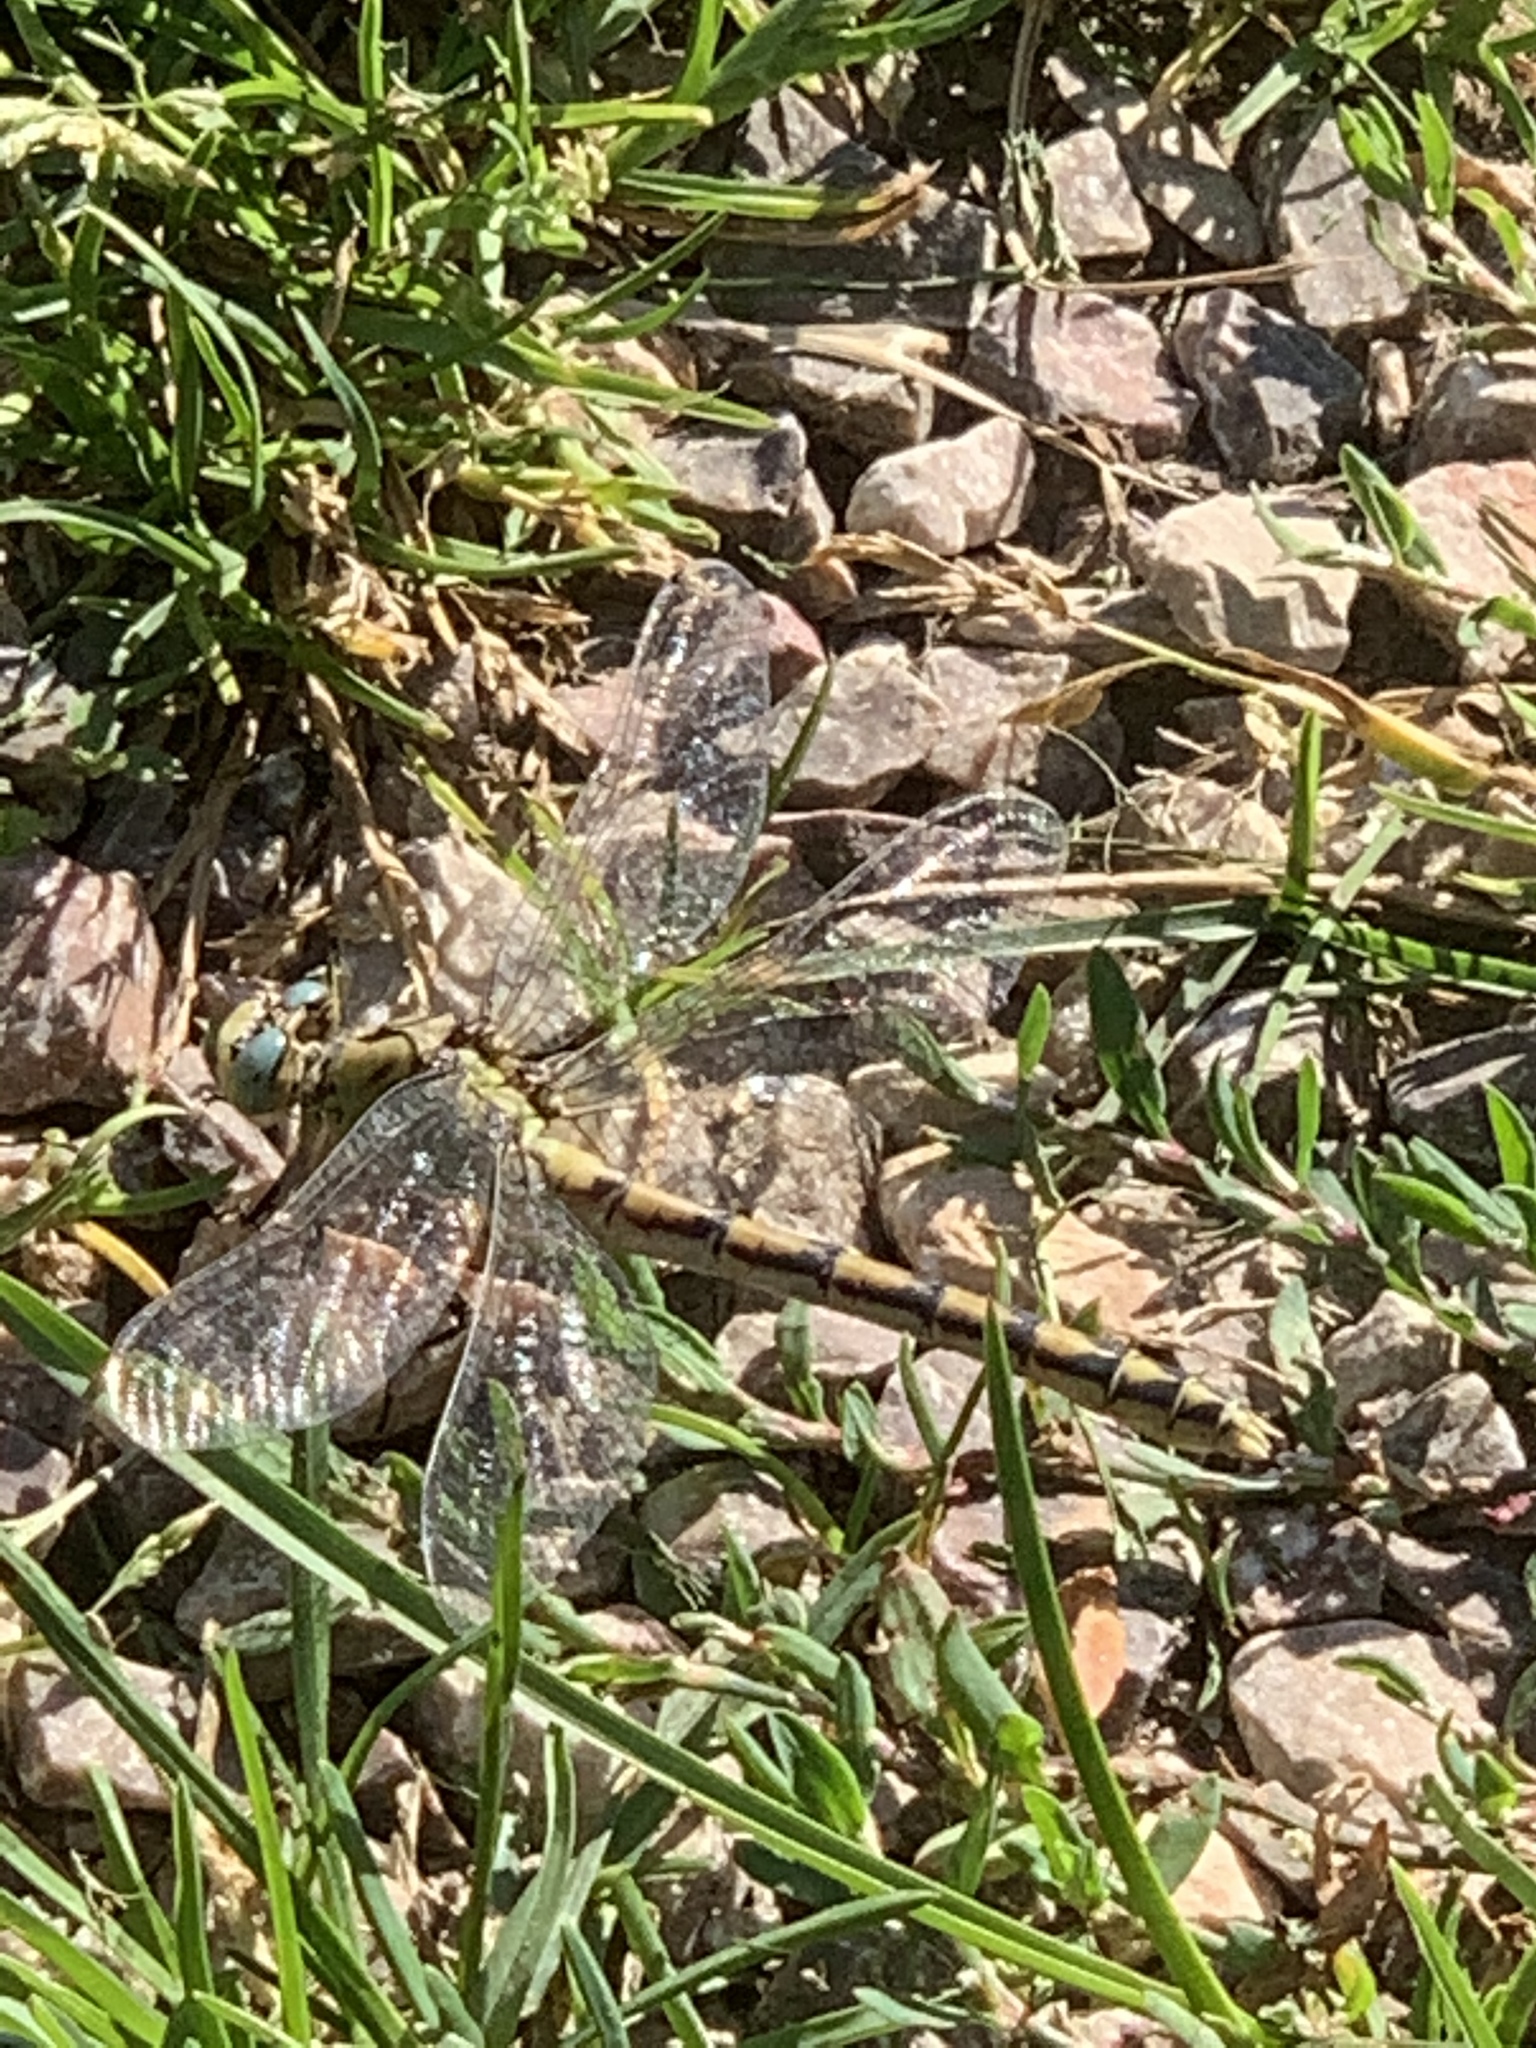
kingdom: Animalia
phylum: Arthropoda
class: Insecta
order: Odonata
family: Gomphidae
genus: Ophiogomphus
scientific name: Ophiogomphus severus
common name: Pale snaketail
